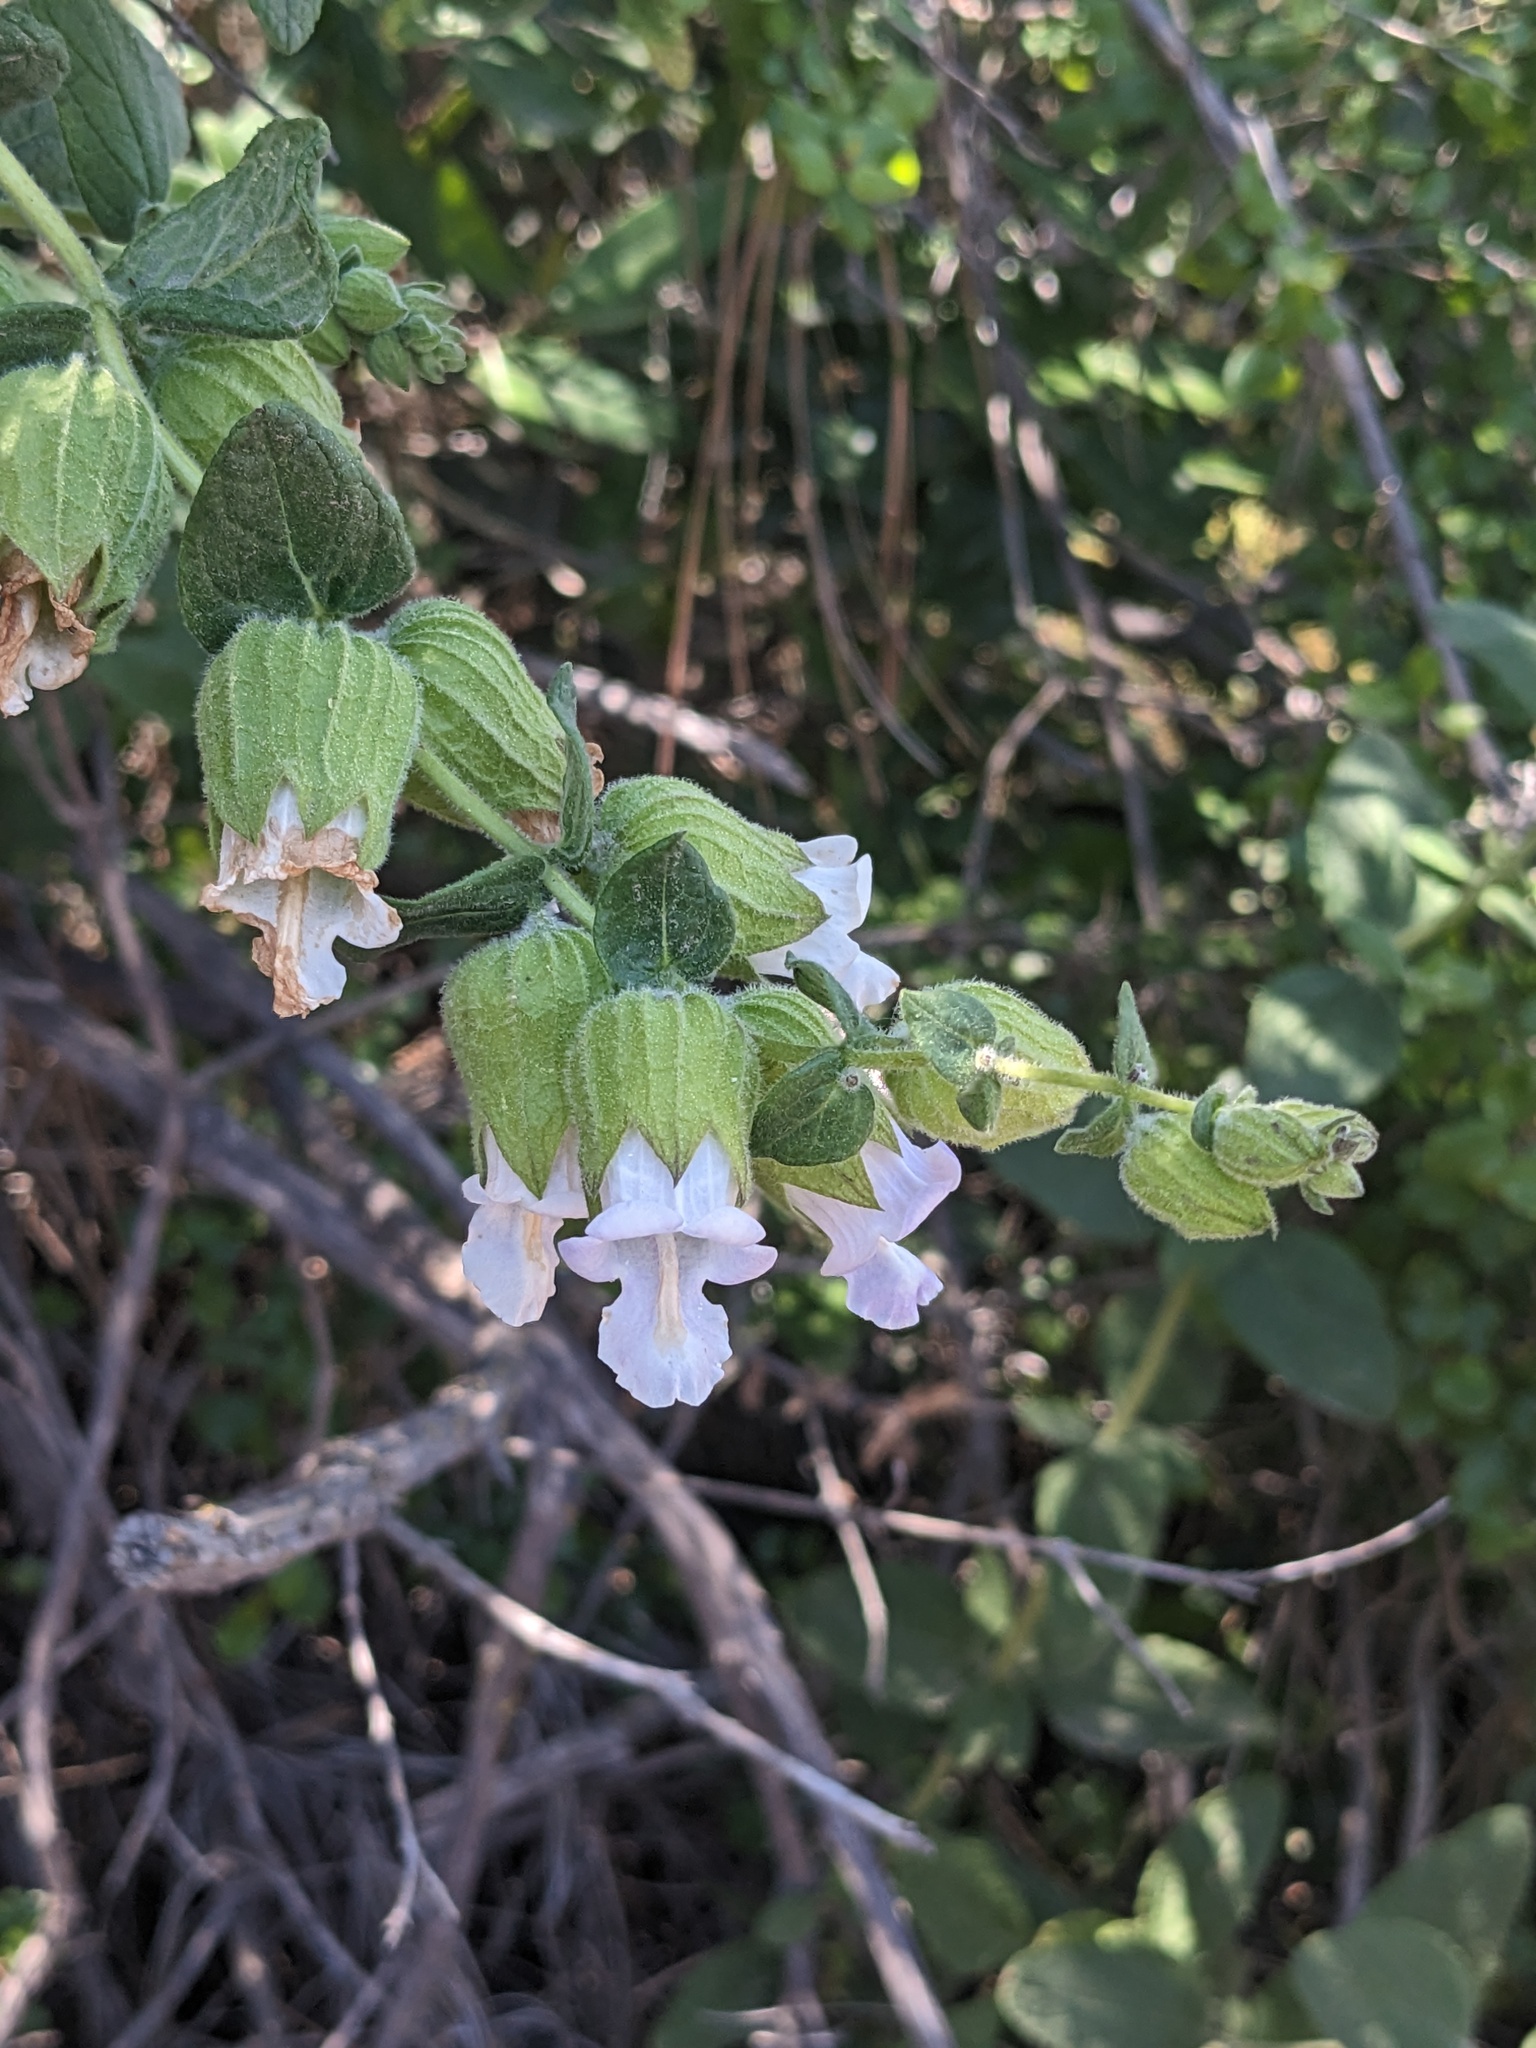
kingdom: Plantae
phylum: Tracheophyta
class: Magnoliopsida
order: Lamiales
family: Lamiaceae
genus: Lepechinia
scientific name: Lepechinia calycina
